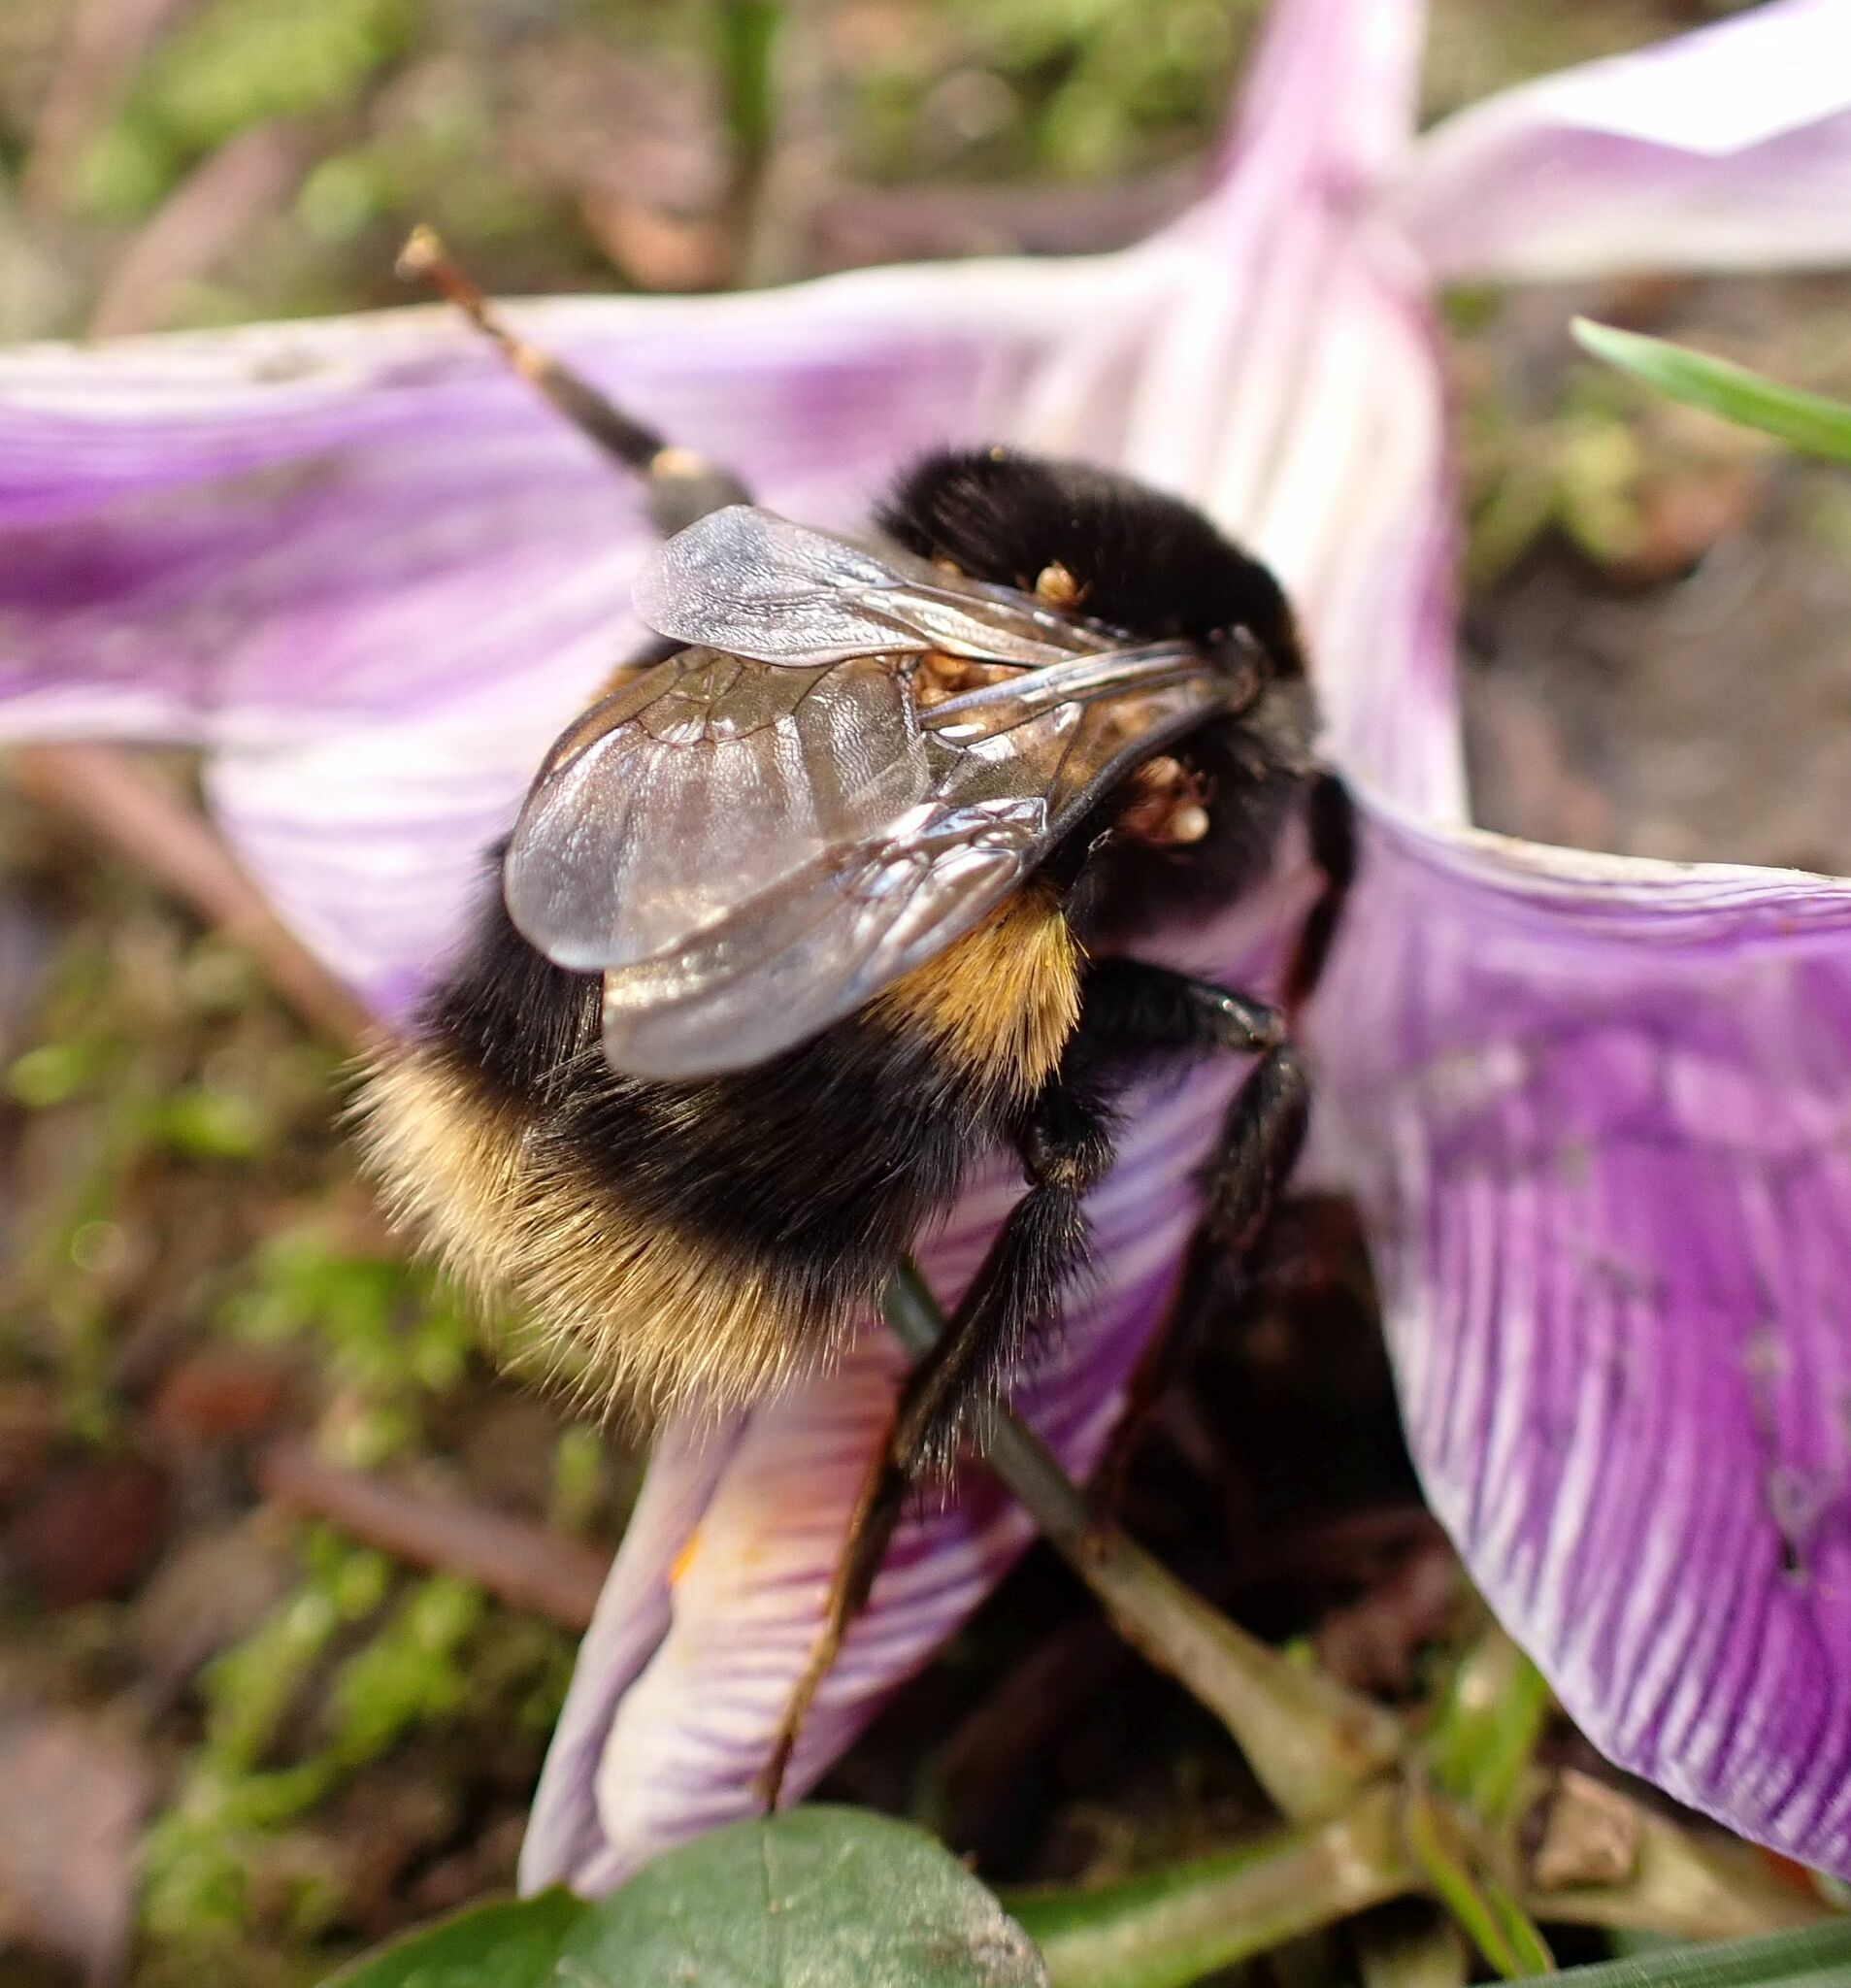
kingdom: Animalia
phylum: Arthropoda
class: Insecta
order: Hymenoptera
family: Apidae
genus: Bombus
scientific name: Bombus terrestris
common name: Buff-tailed bumblebee
